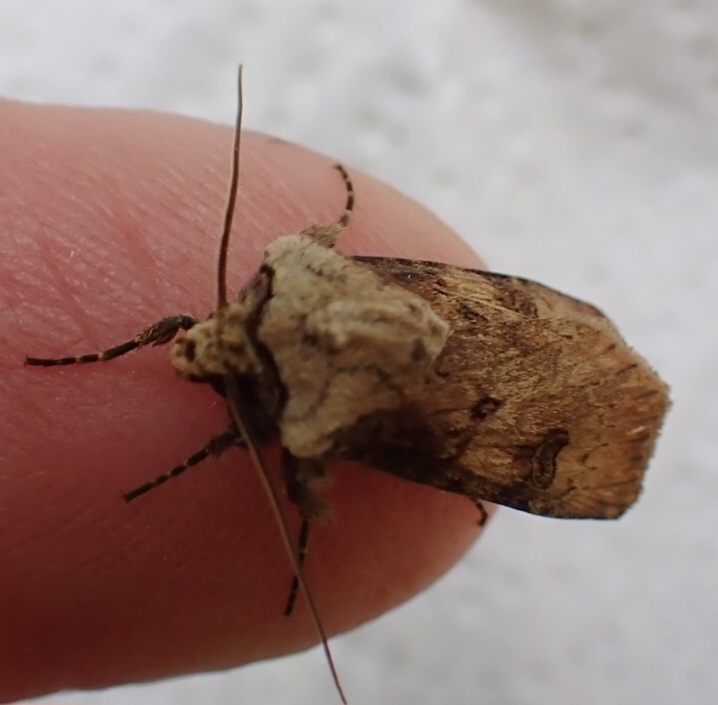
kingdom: Animalia
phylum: Arthropoda
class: Insecta
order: Lepidoptera
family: Noctuidae
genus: Agrotis
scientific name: Agrotis puta
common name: Shuttle-shaped dart
